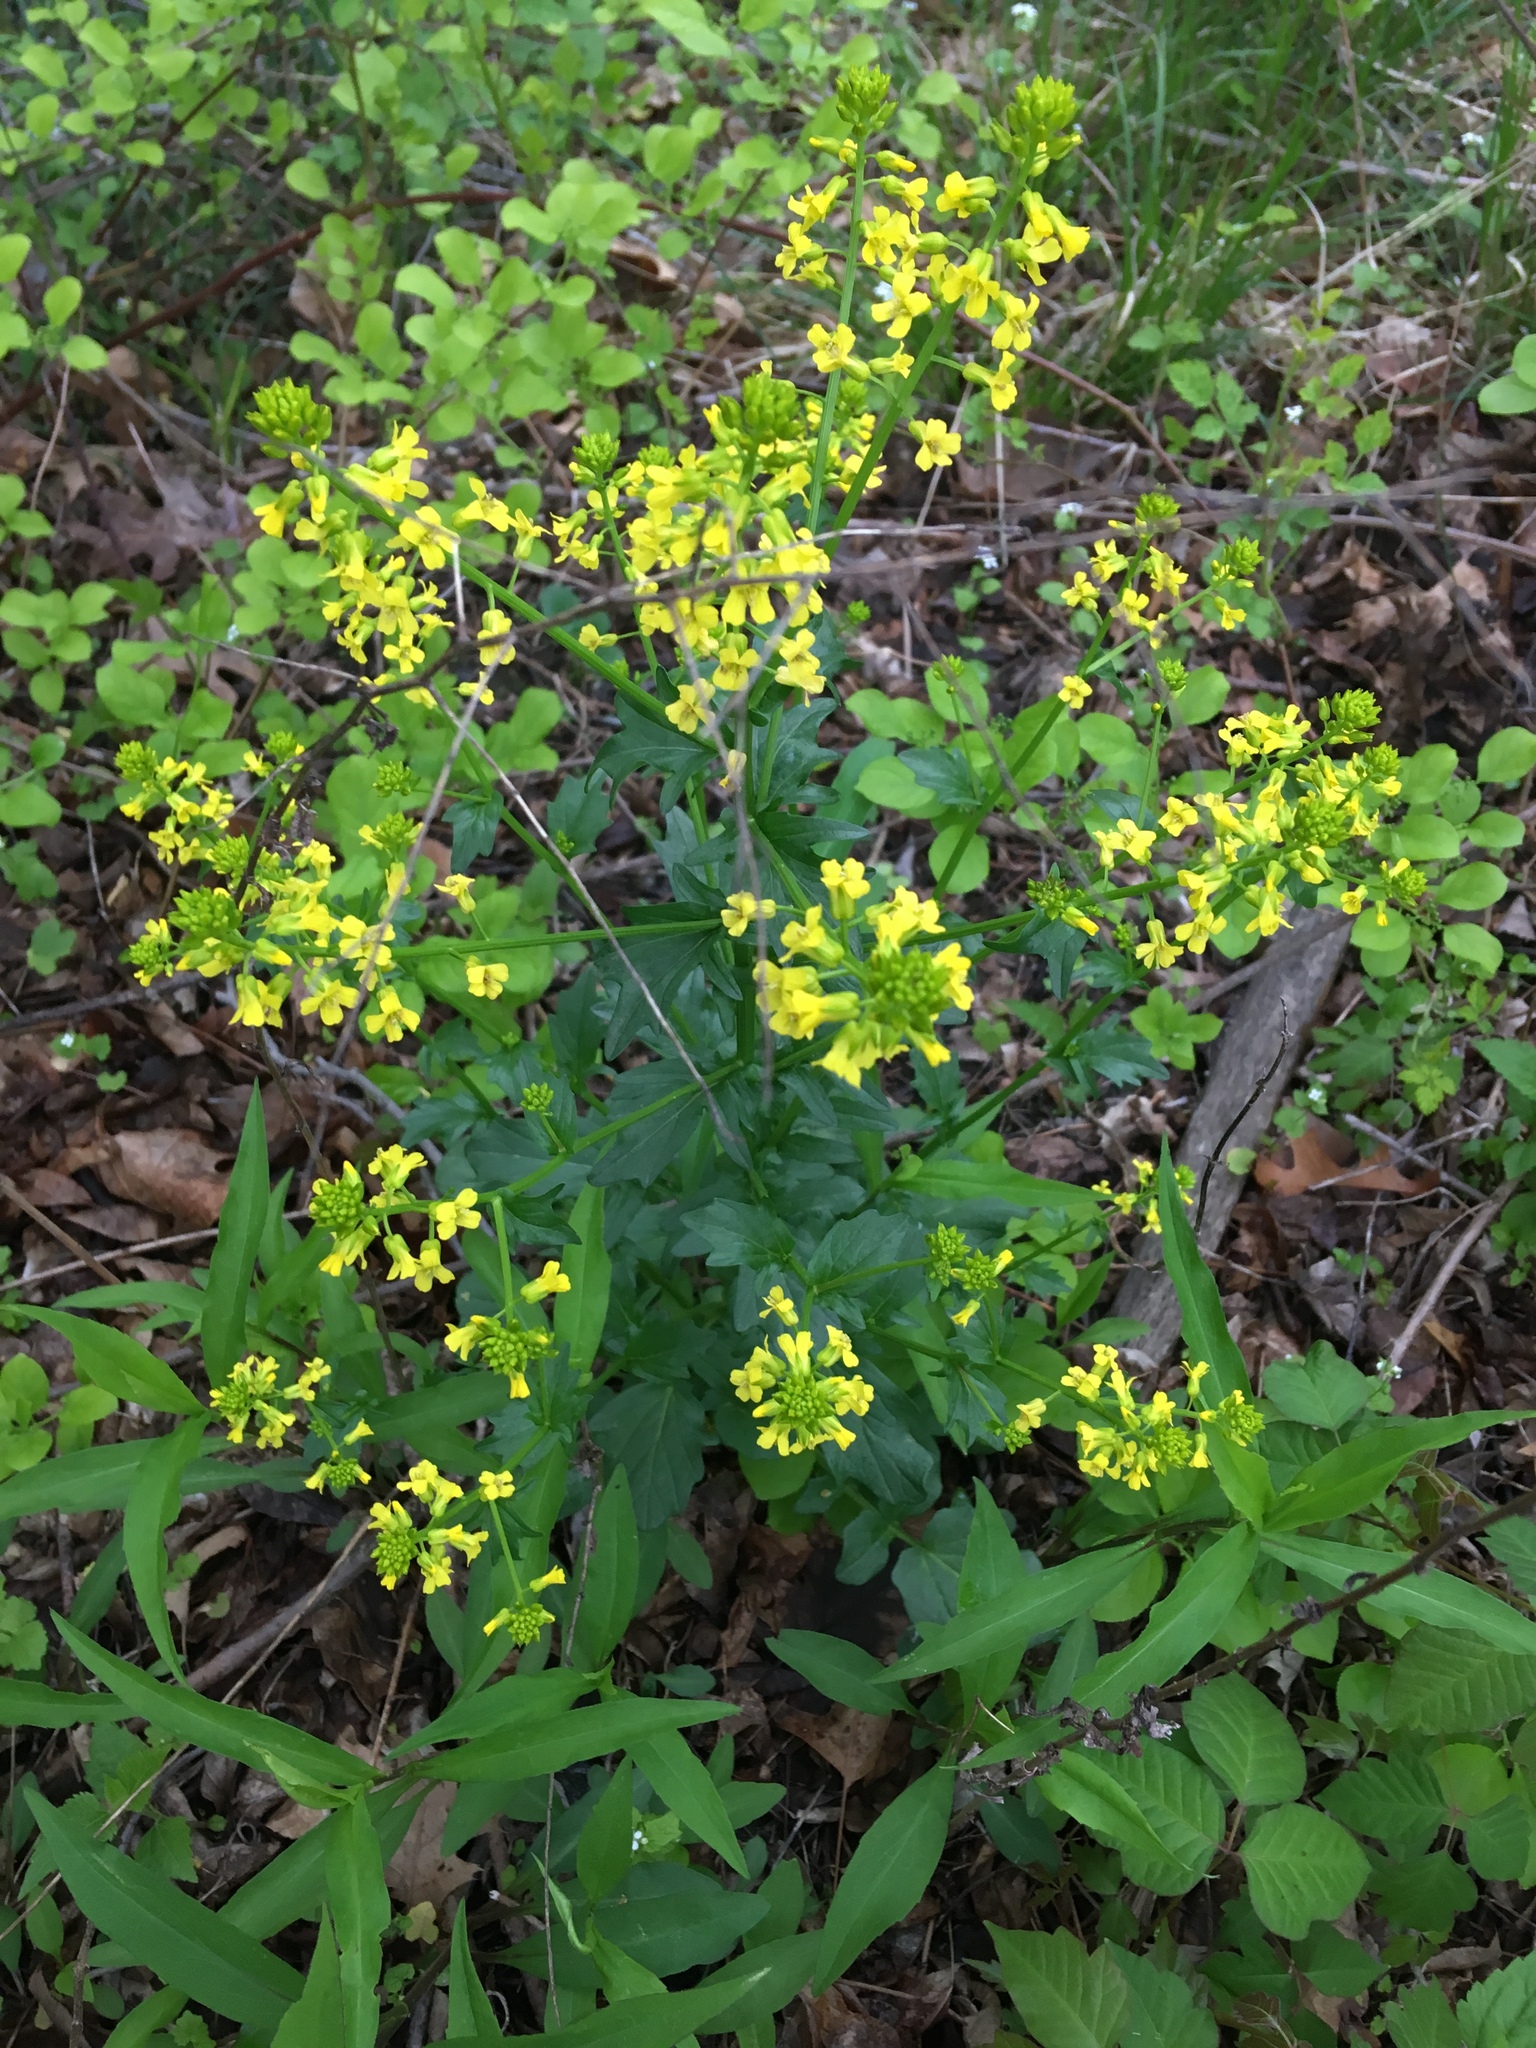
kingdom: Plantae
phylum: Tracheophyta
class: Magnoliopsida
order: Brassicales
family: Brassicaceae
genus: Barbarea
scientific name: Barbarea vulgaris
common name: Cressy-greens
